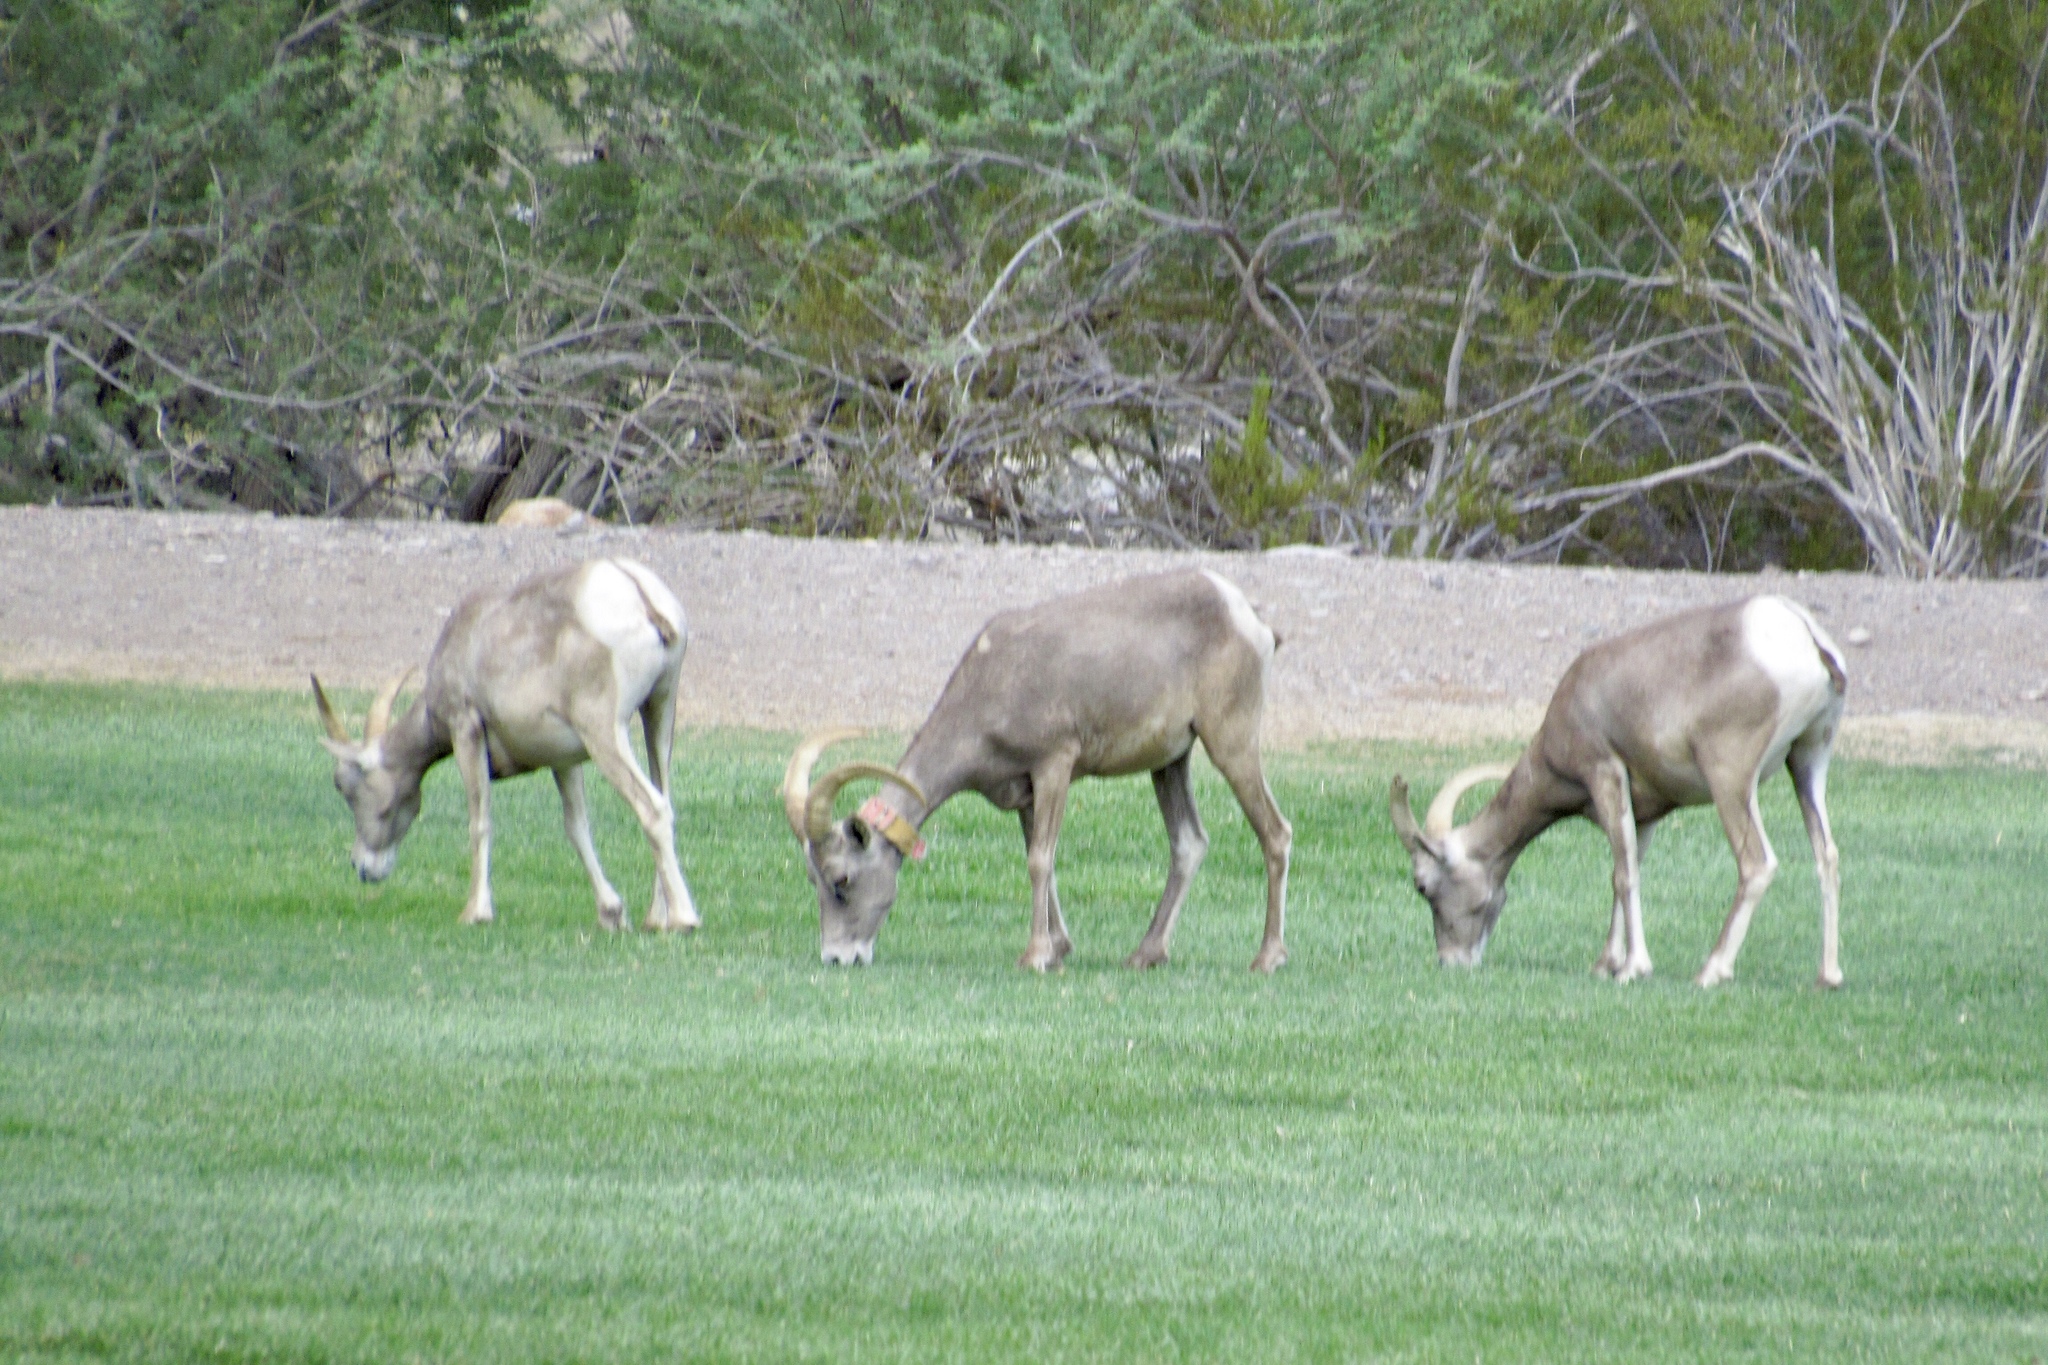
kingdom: Animalia
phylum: Chordata
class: Mammalia
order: Artiodactyla
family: Bovidae
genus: Ovis
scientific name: Ovis canadensis
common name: Bighorn sheep
